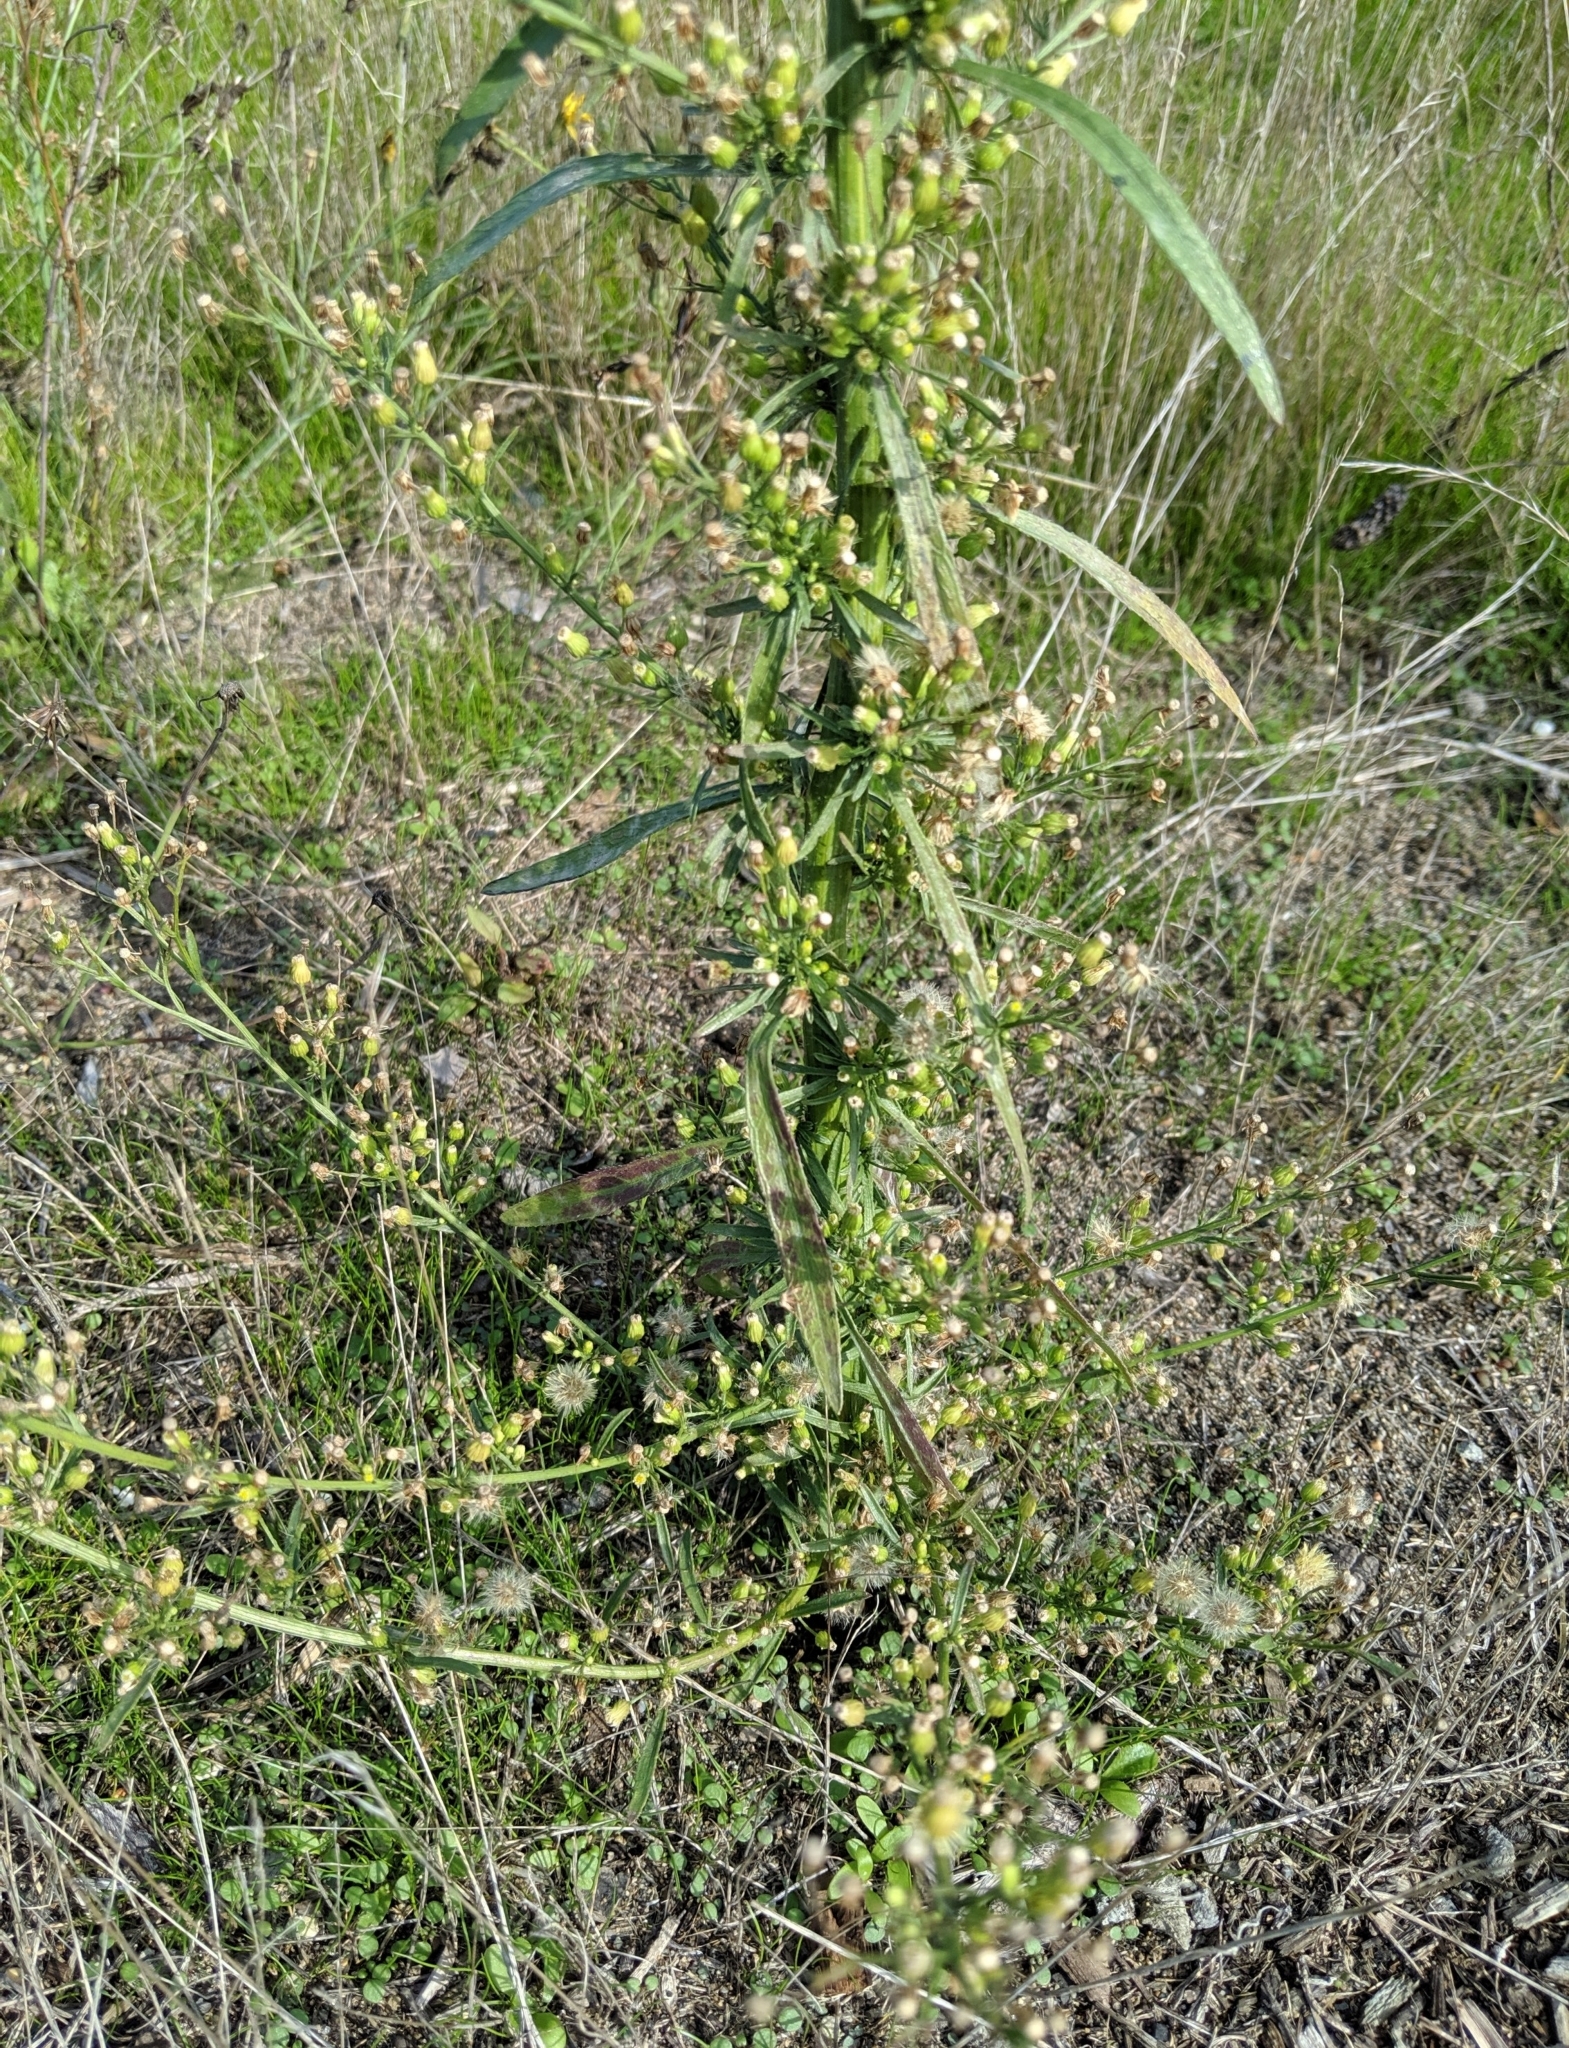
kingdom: Plantae
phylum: Tracheophyta
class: Magnoliopsida
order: Asterales
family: Asteraceae
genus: Erigeron
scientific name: Erigeron canadensis
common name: Canadian fleabane
